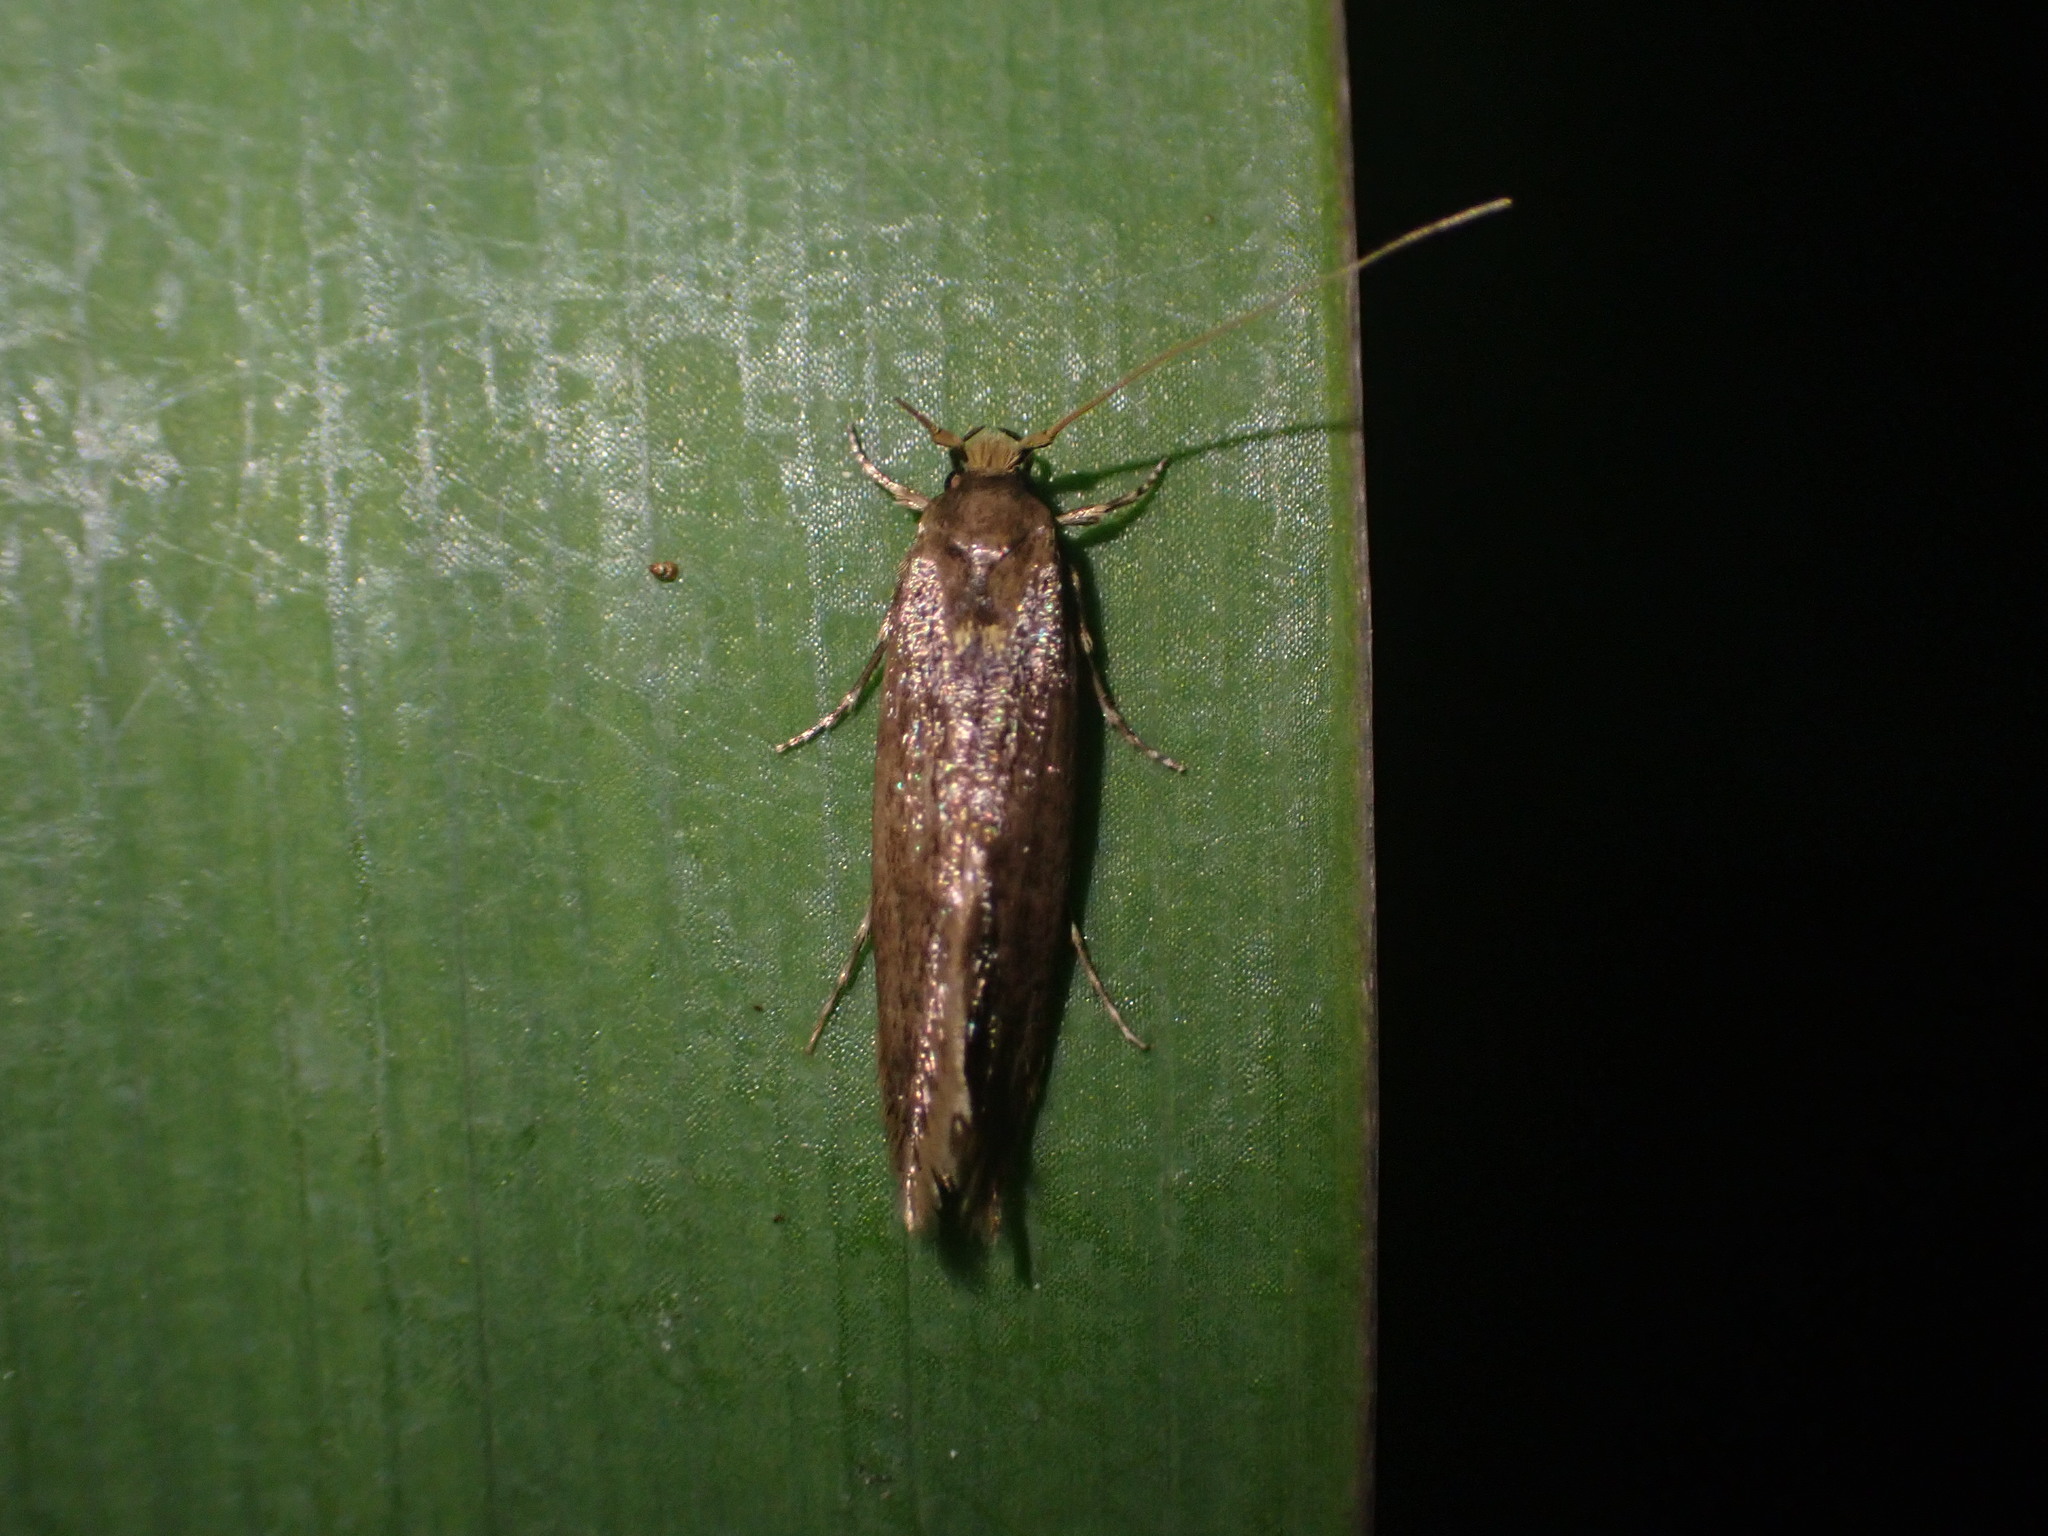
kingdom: Animalia
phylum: Arthropoda
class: Insecta
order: Lepidoptera
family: Tineidae
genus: Opogona
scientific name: Opogona omoscopa
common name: Moth
